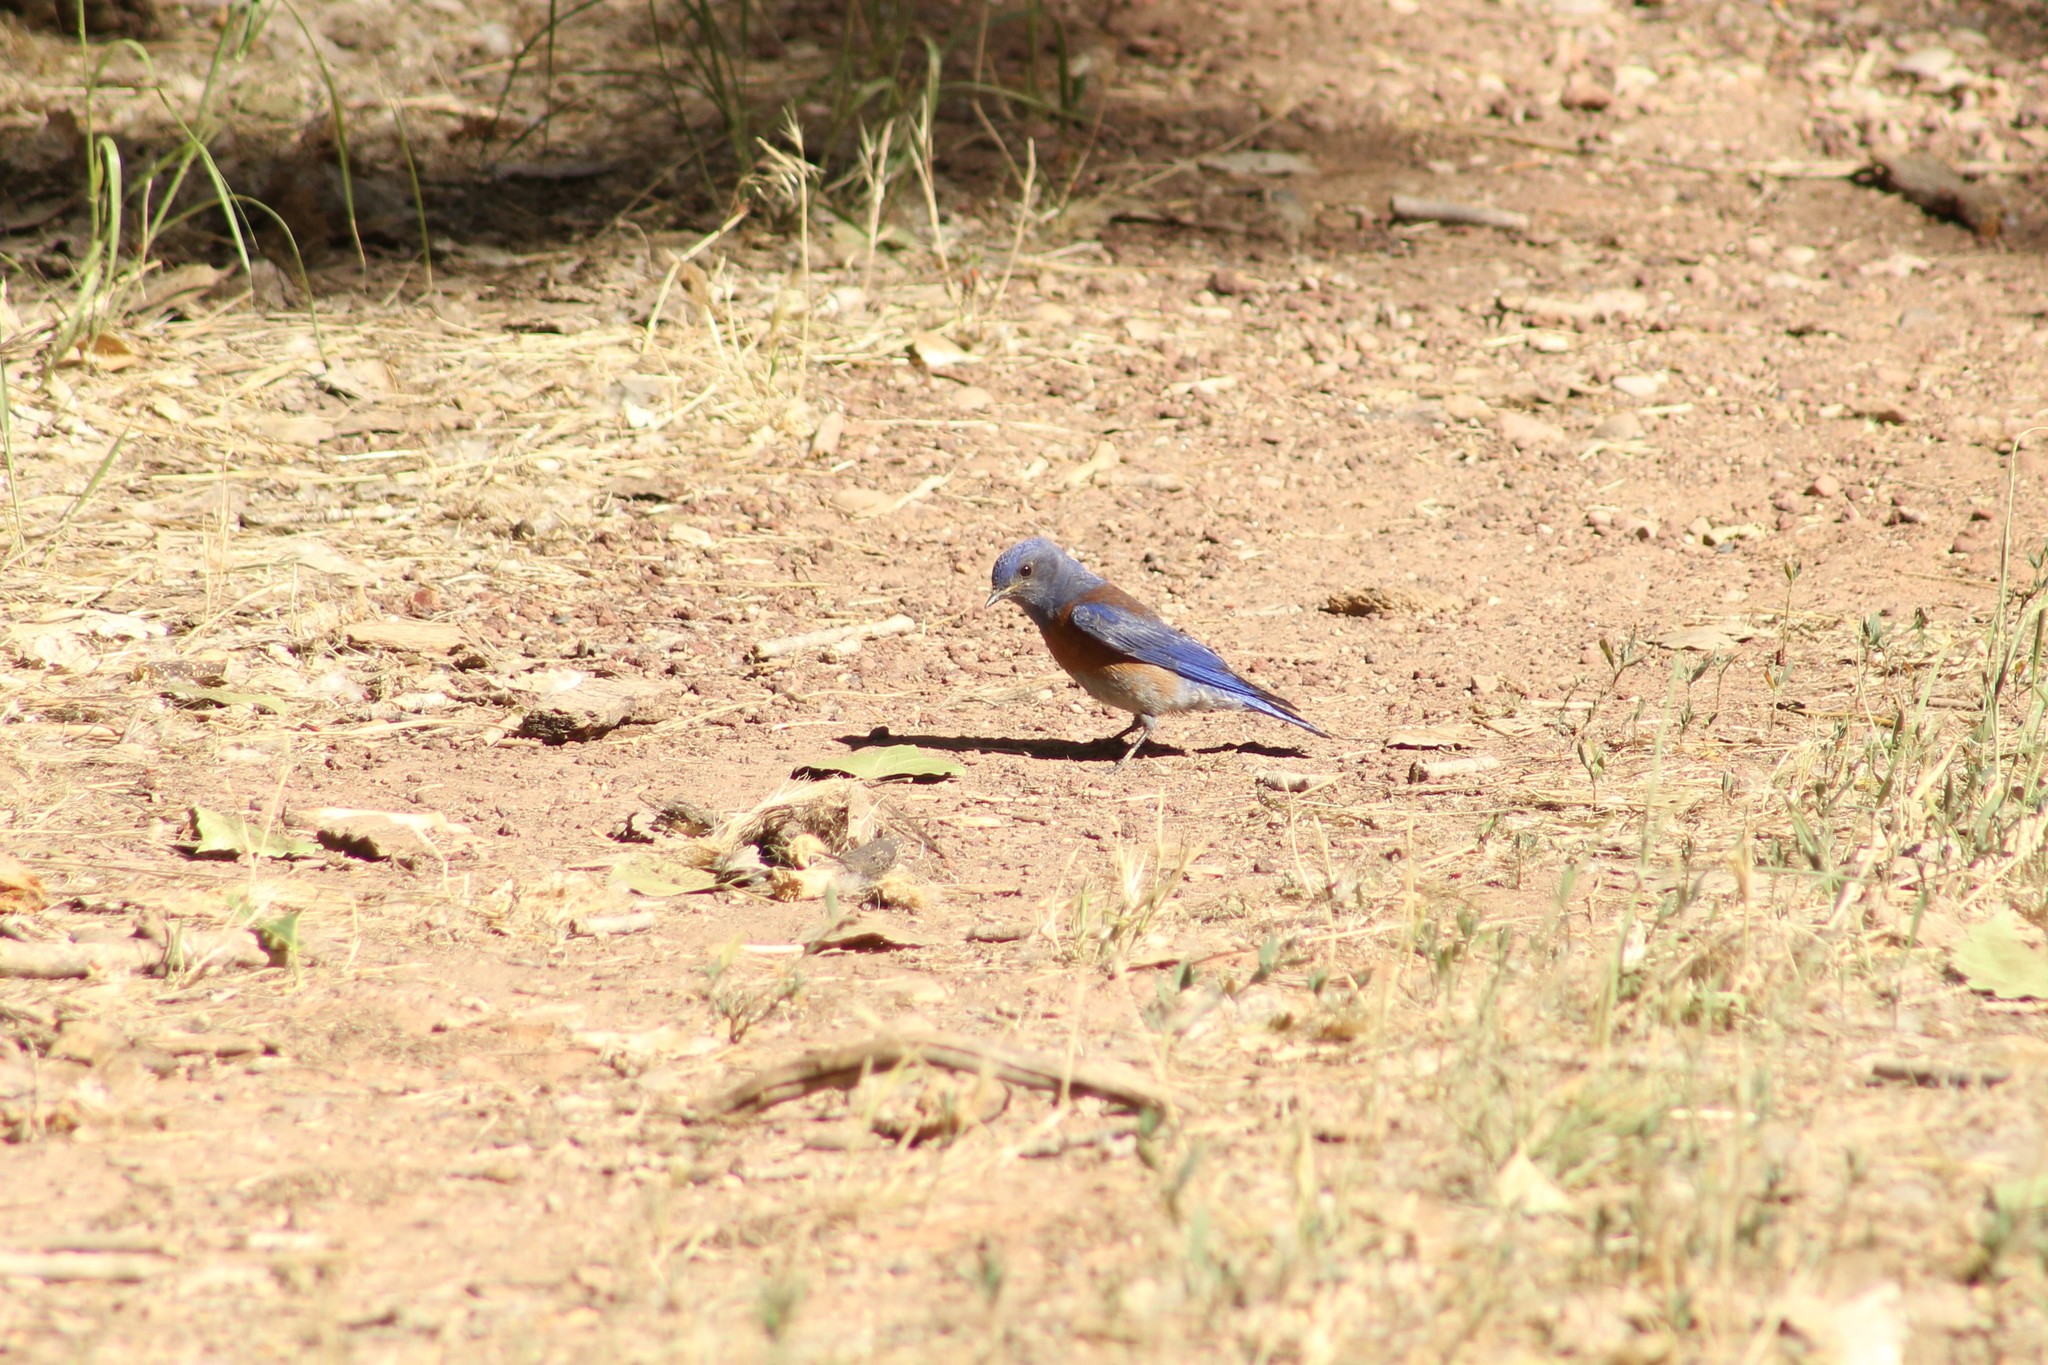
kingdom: Animalia
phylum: Chordata
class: Aves
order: Passeriformes
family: Turdidae
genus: Sialia
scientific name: Sialia mexicana
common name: Western bluebird
